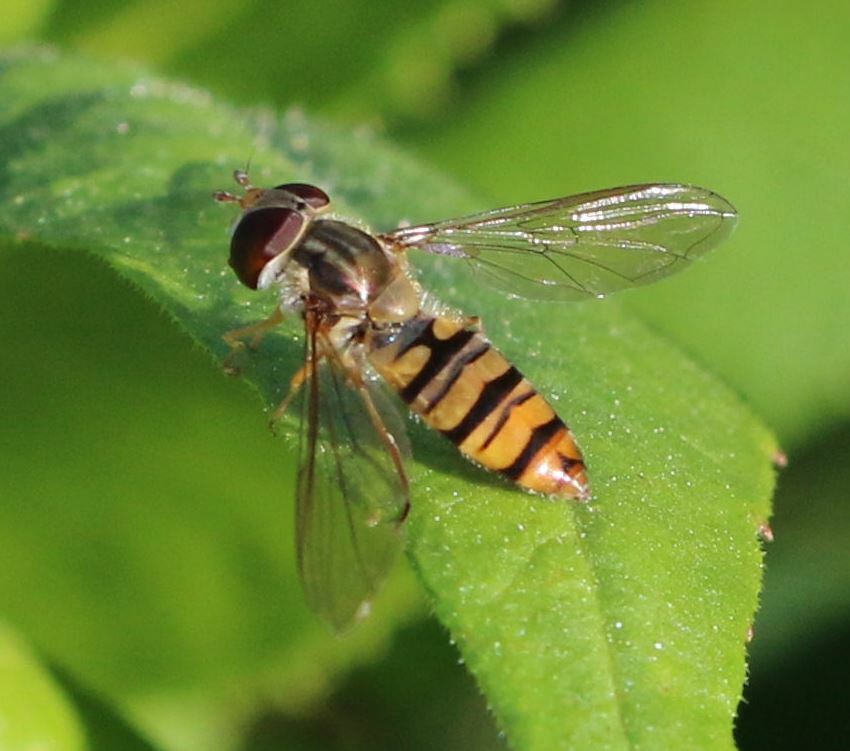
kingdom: Animalia
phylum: Arthropoda
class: Insecta
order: Diptera
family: Syrphidae
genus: Episyrphus
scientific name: Episyrphus balteatus
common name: Marmalade hoverfly
